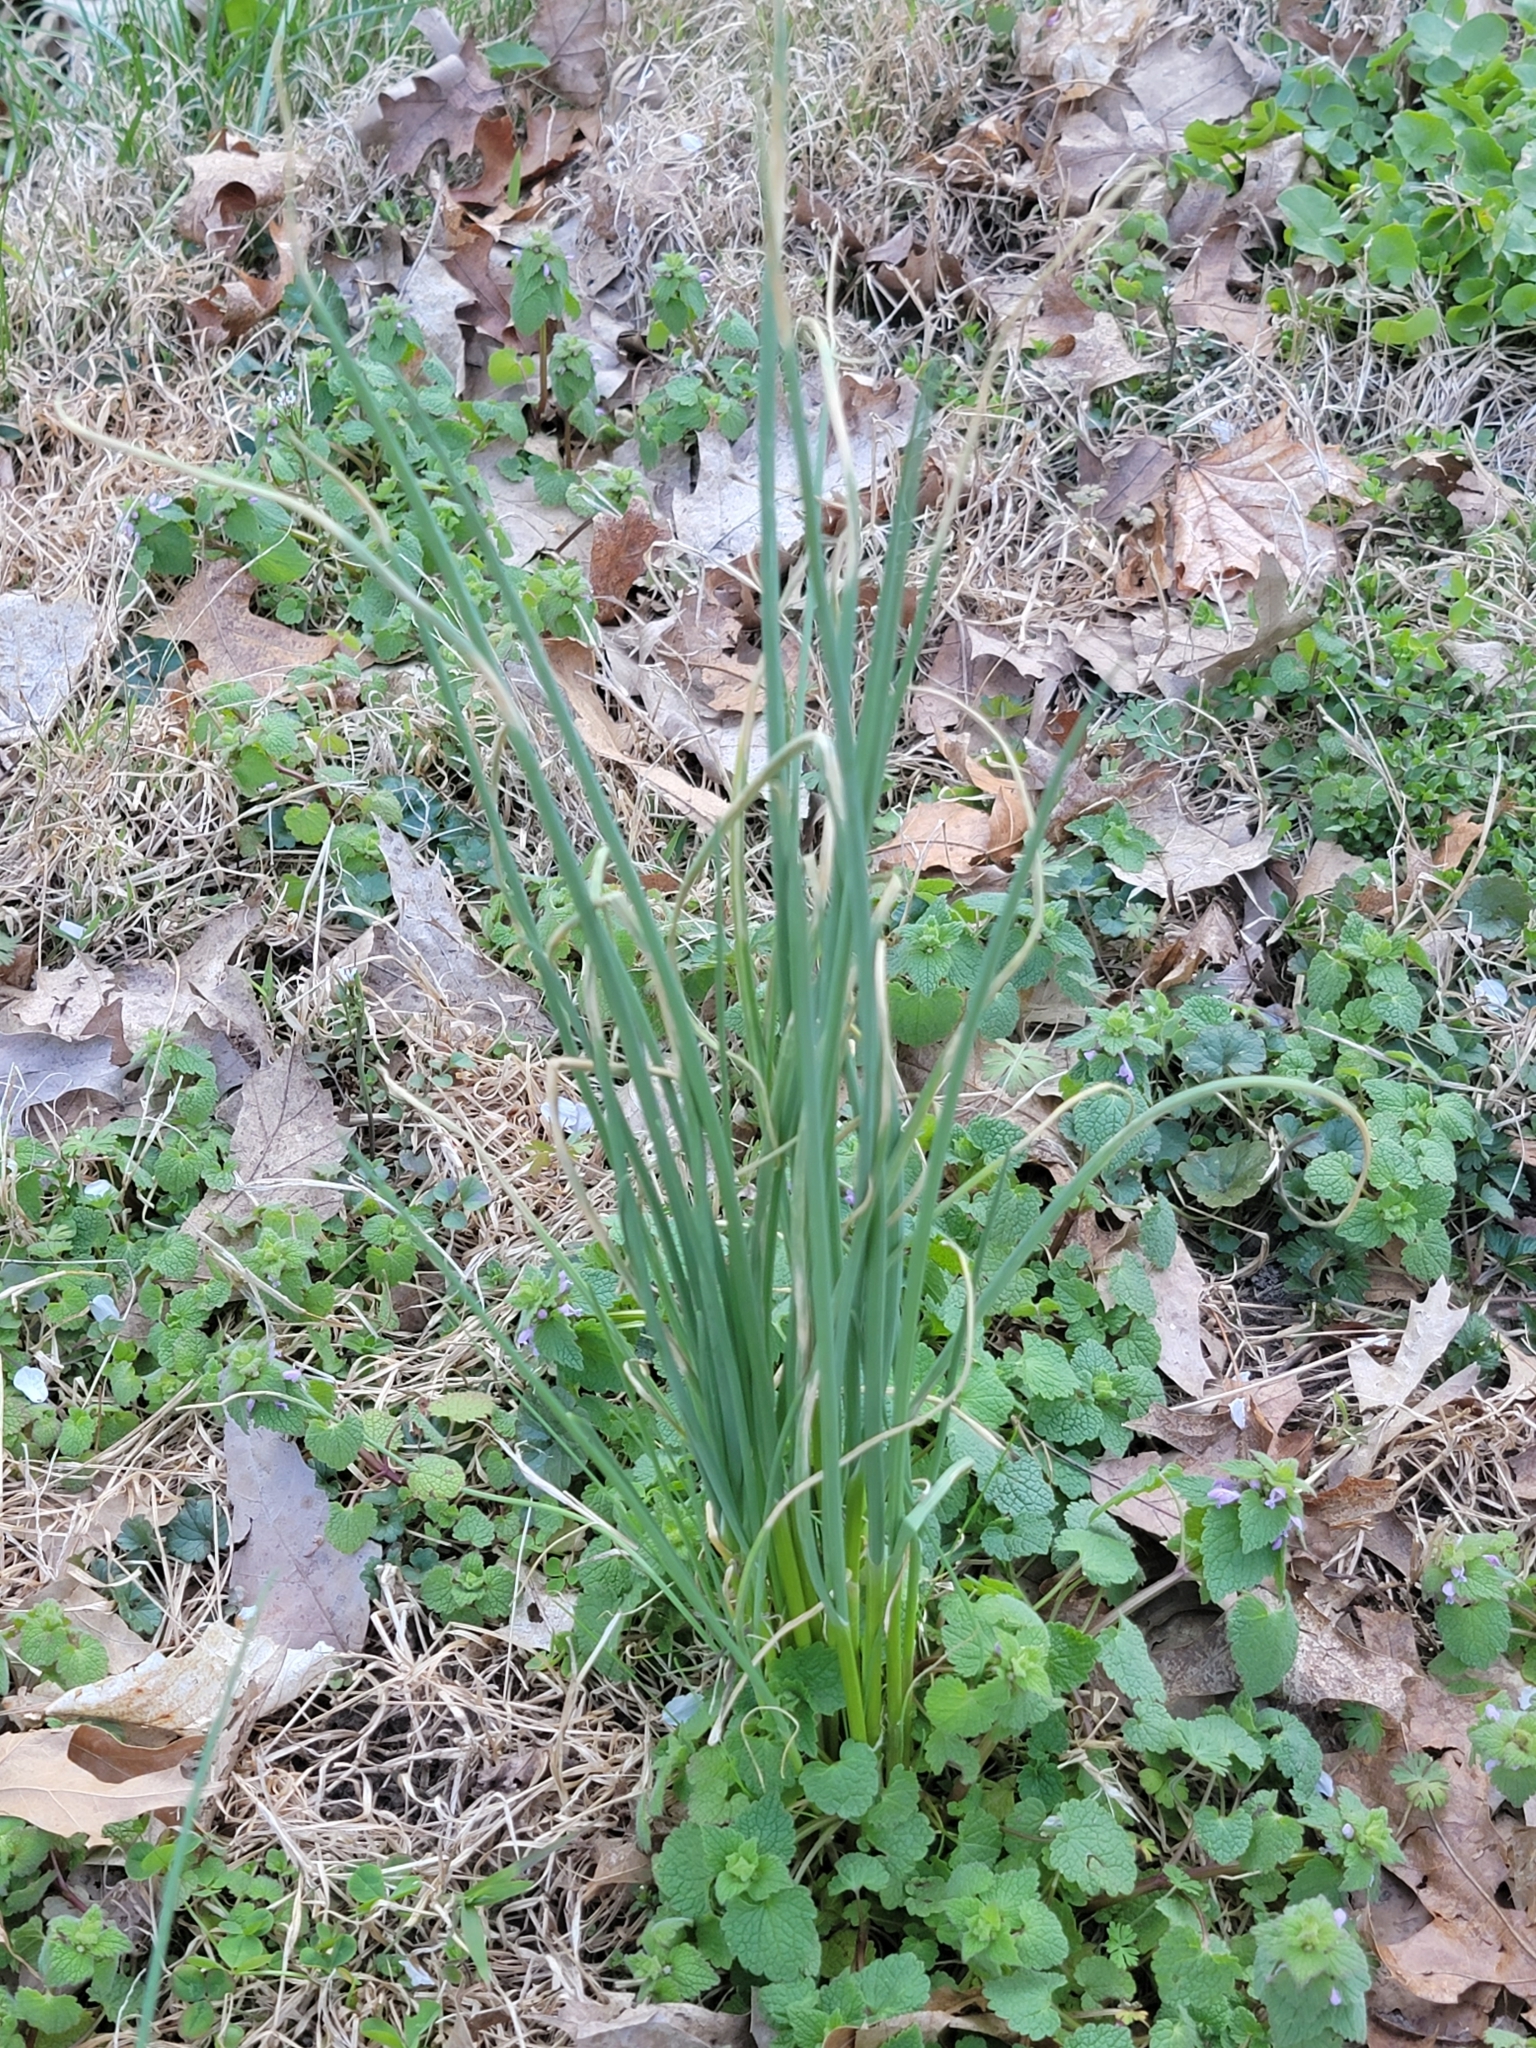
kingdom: Plantae
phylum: Tracheophyta
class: Liliopsida
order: Asparagales
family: Amaryllidaceae
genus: Allium
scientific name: Allium vineale
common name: Crow garlic
